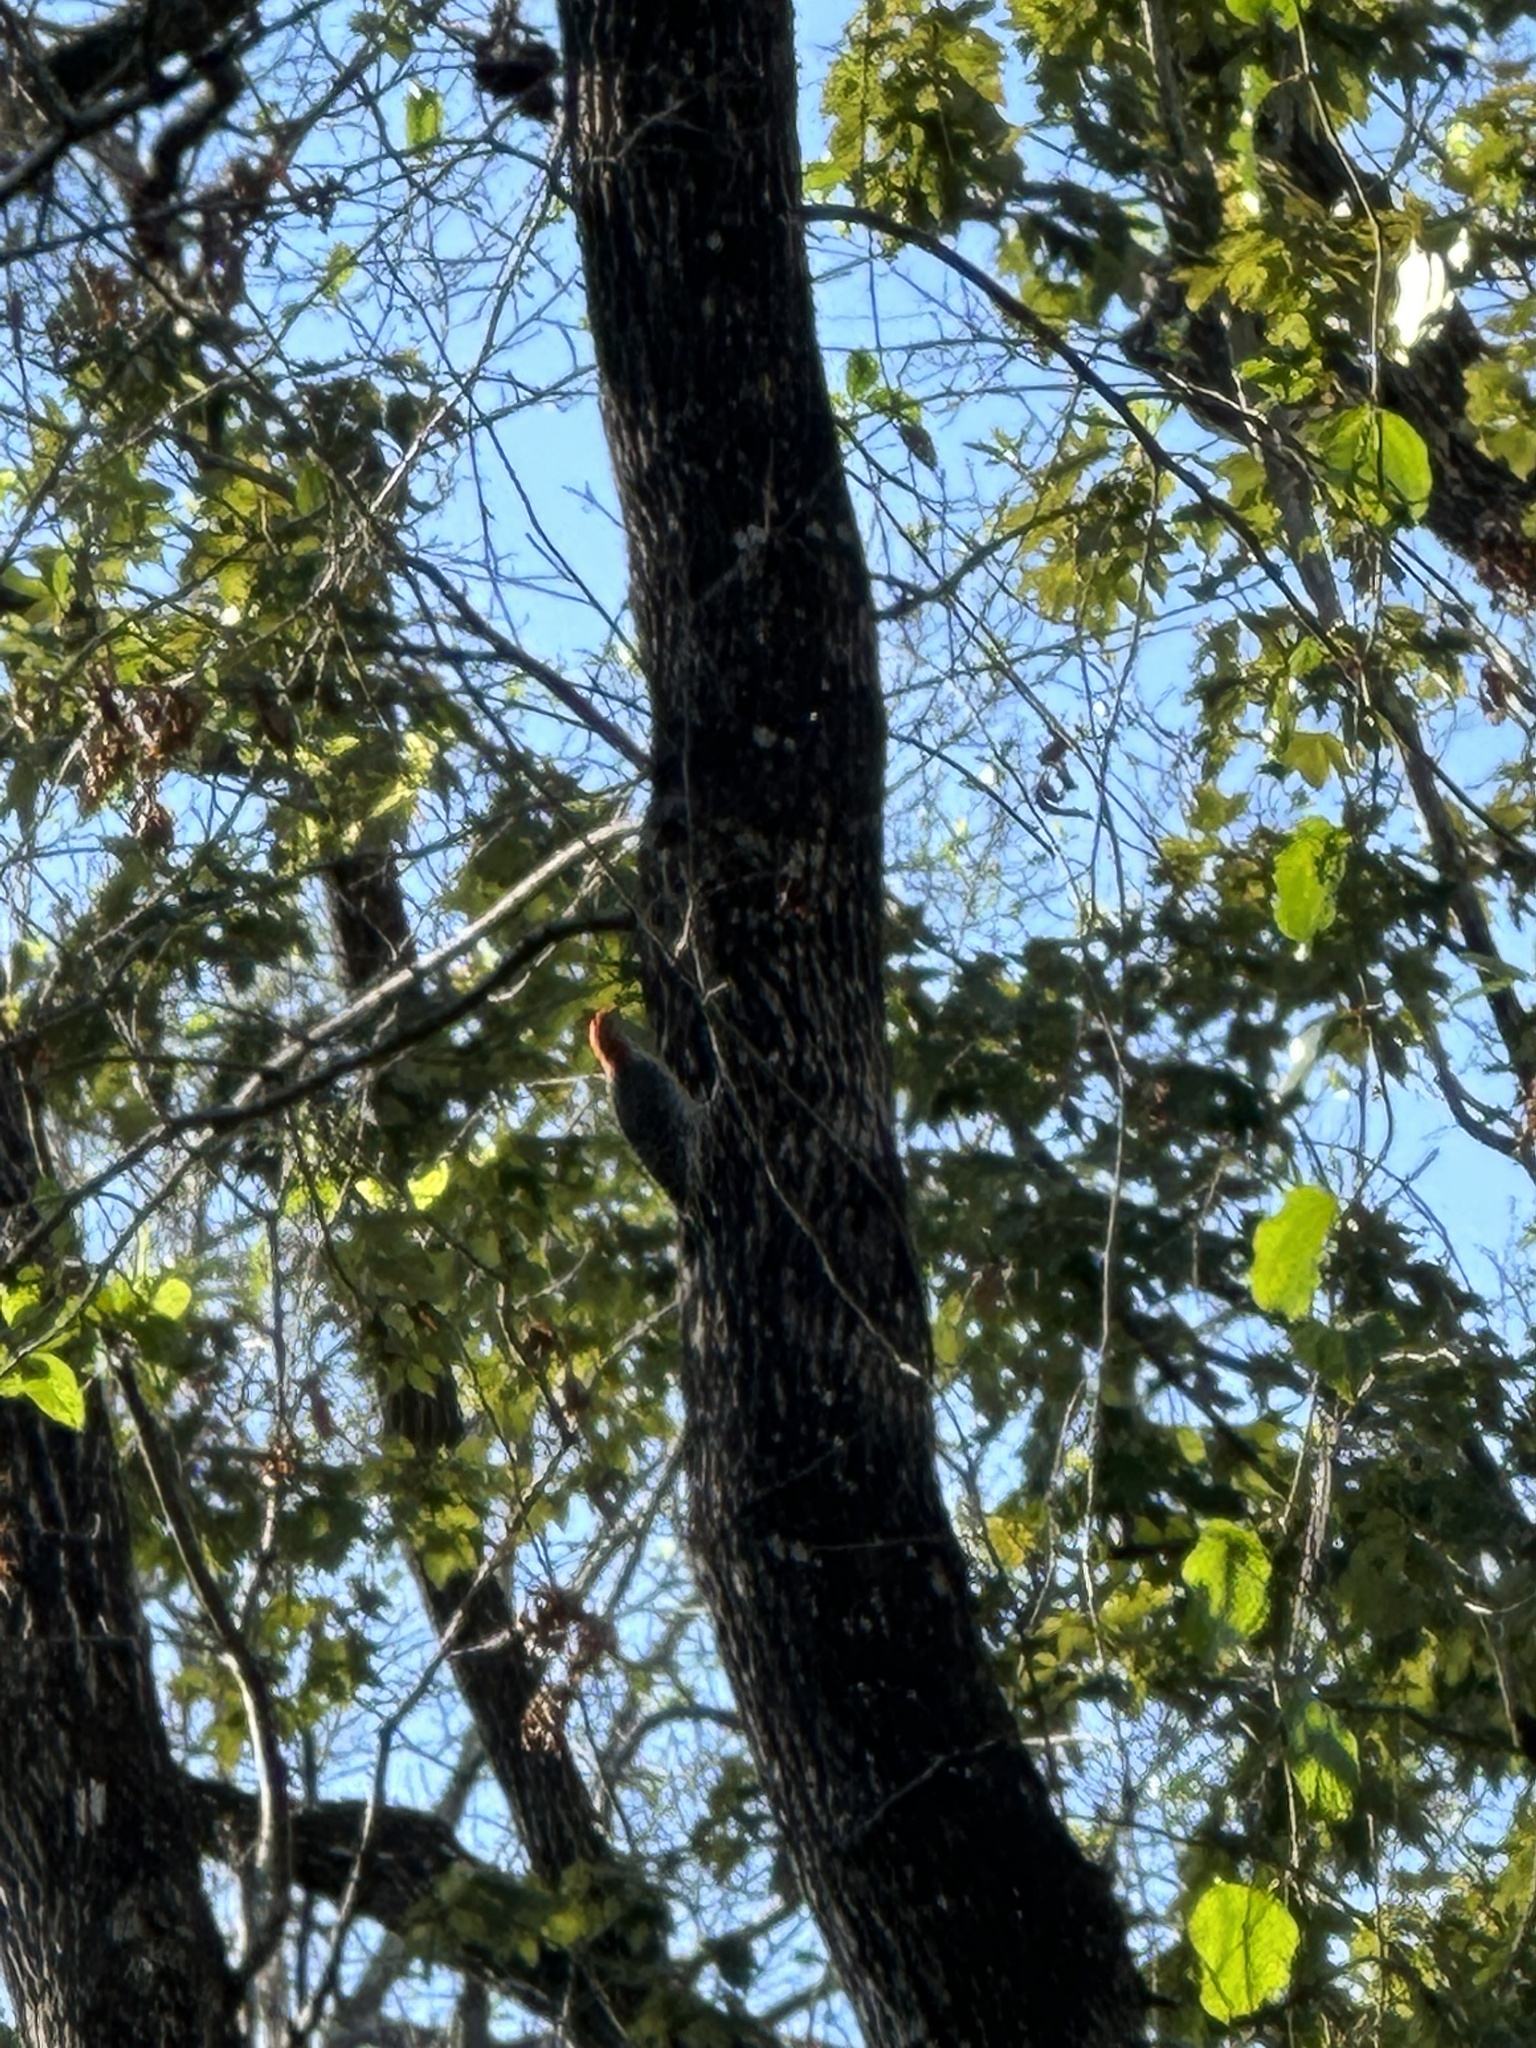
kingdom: Animalia
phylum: Chordata
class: Aves
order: Piciformes
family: Picidae
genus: Melanerpes
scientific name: Melanerpes carolinus
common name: Red-bellied woodpecker
